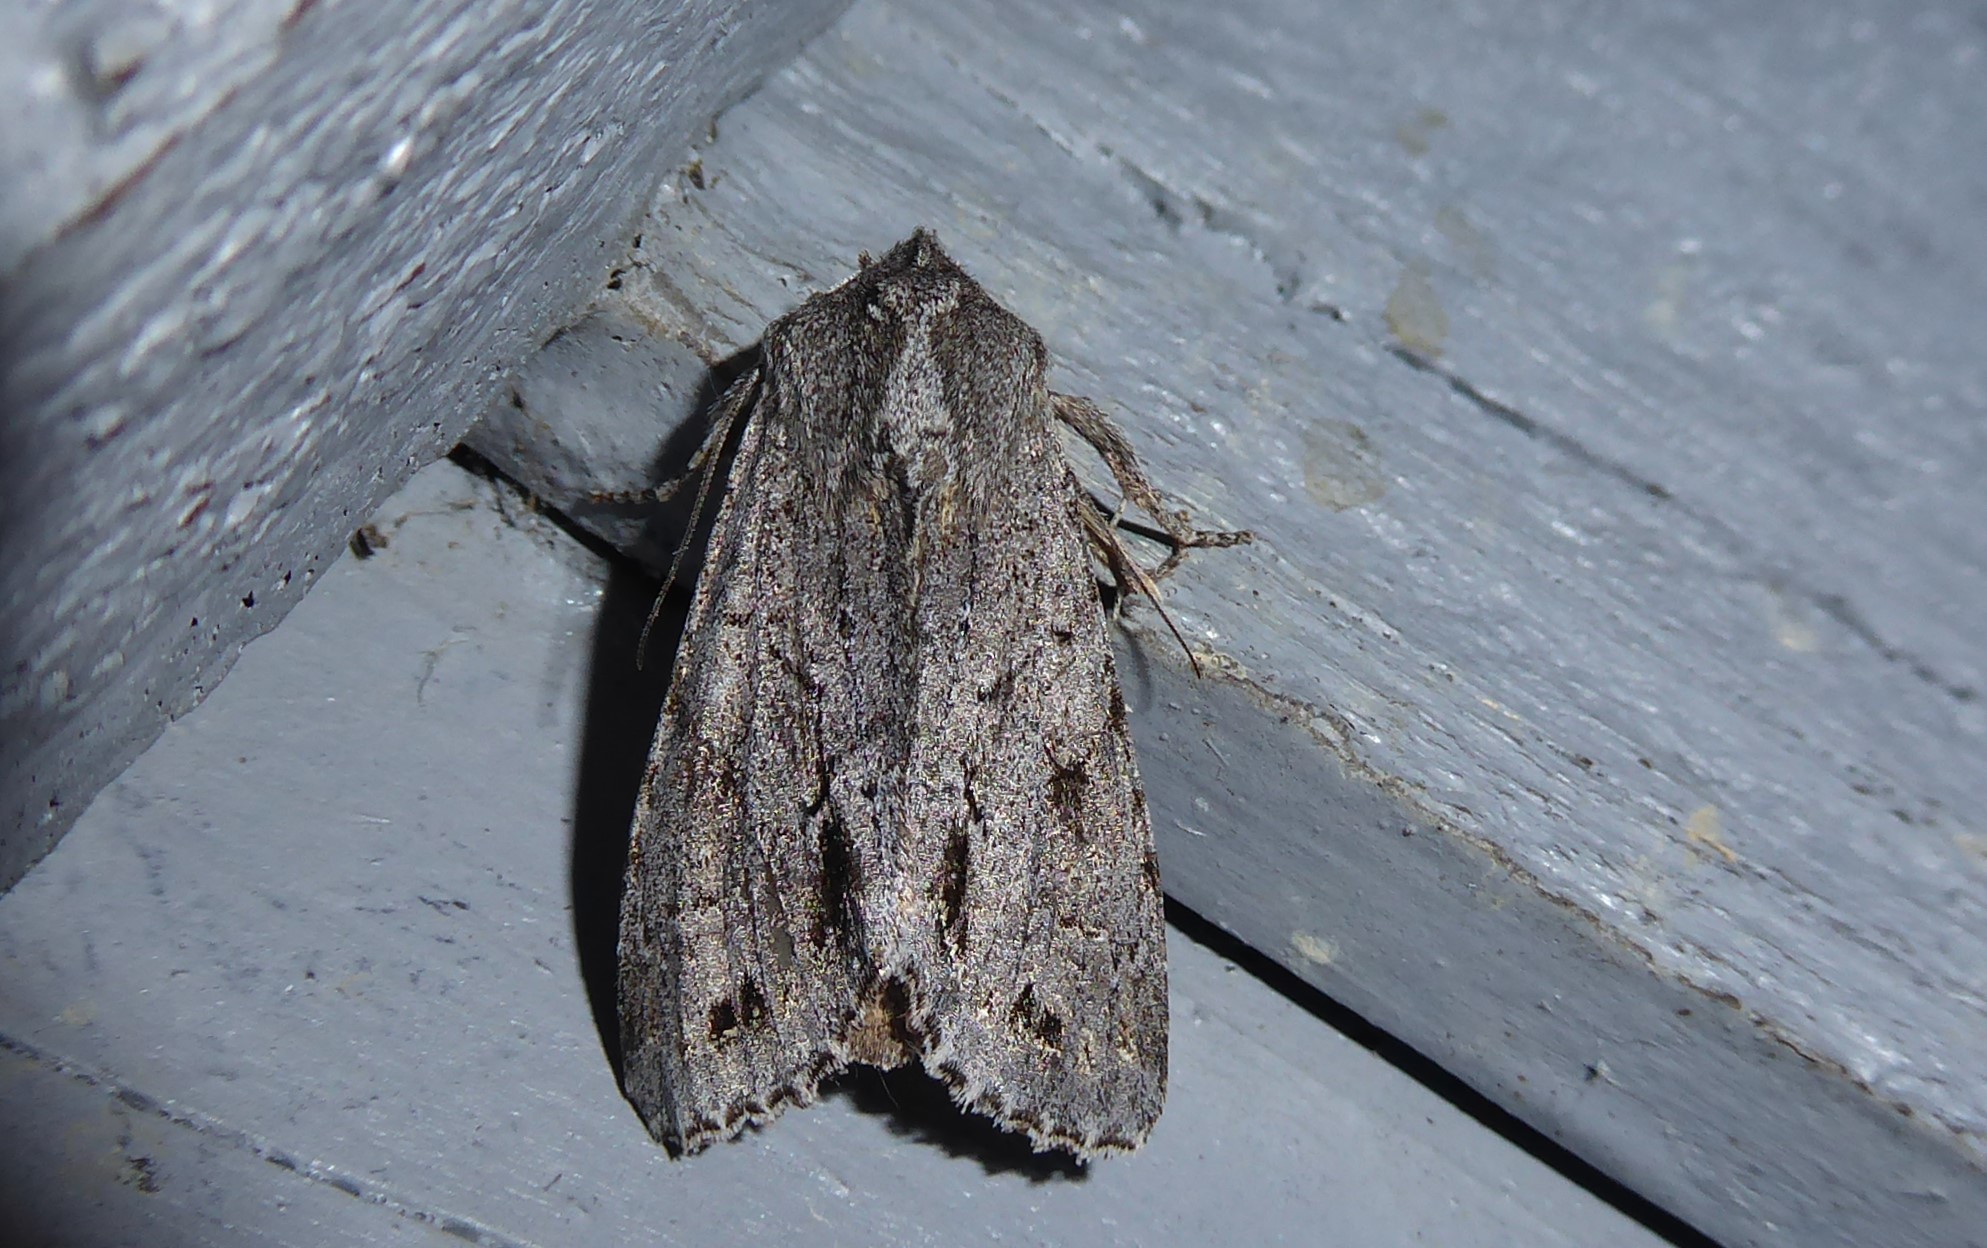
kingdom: Animalia
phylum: Arthropoda
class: Insecta
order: Lepidoptera
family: Noctuidae
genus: Ichneutica
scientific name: Ichneutica
